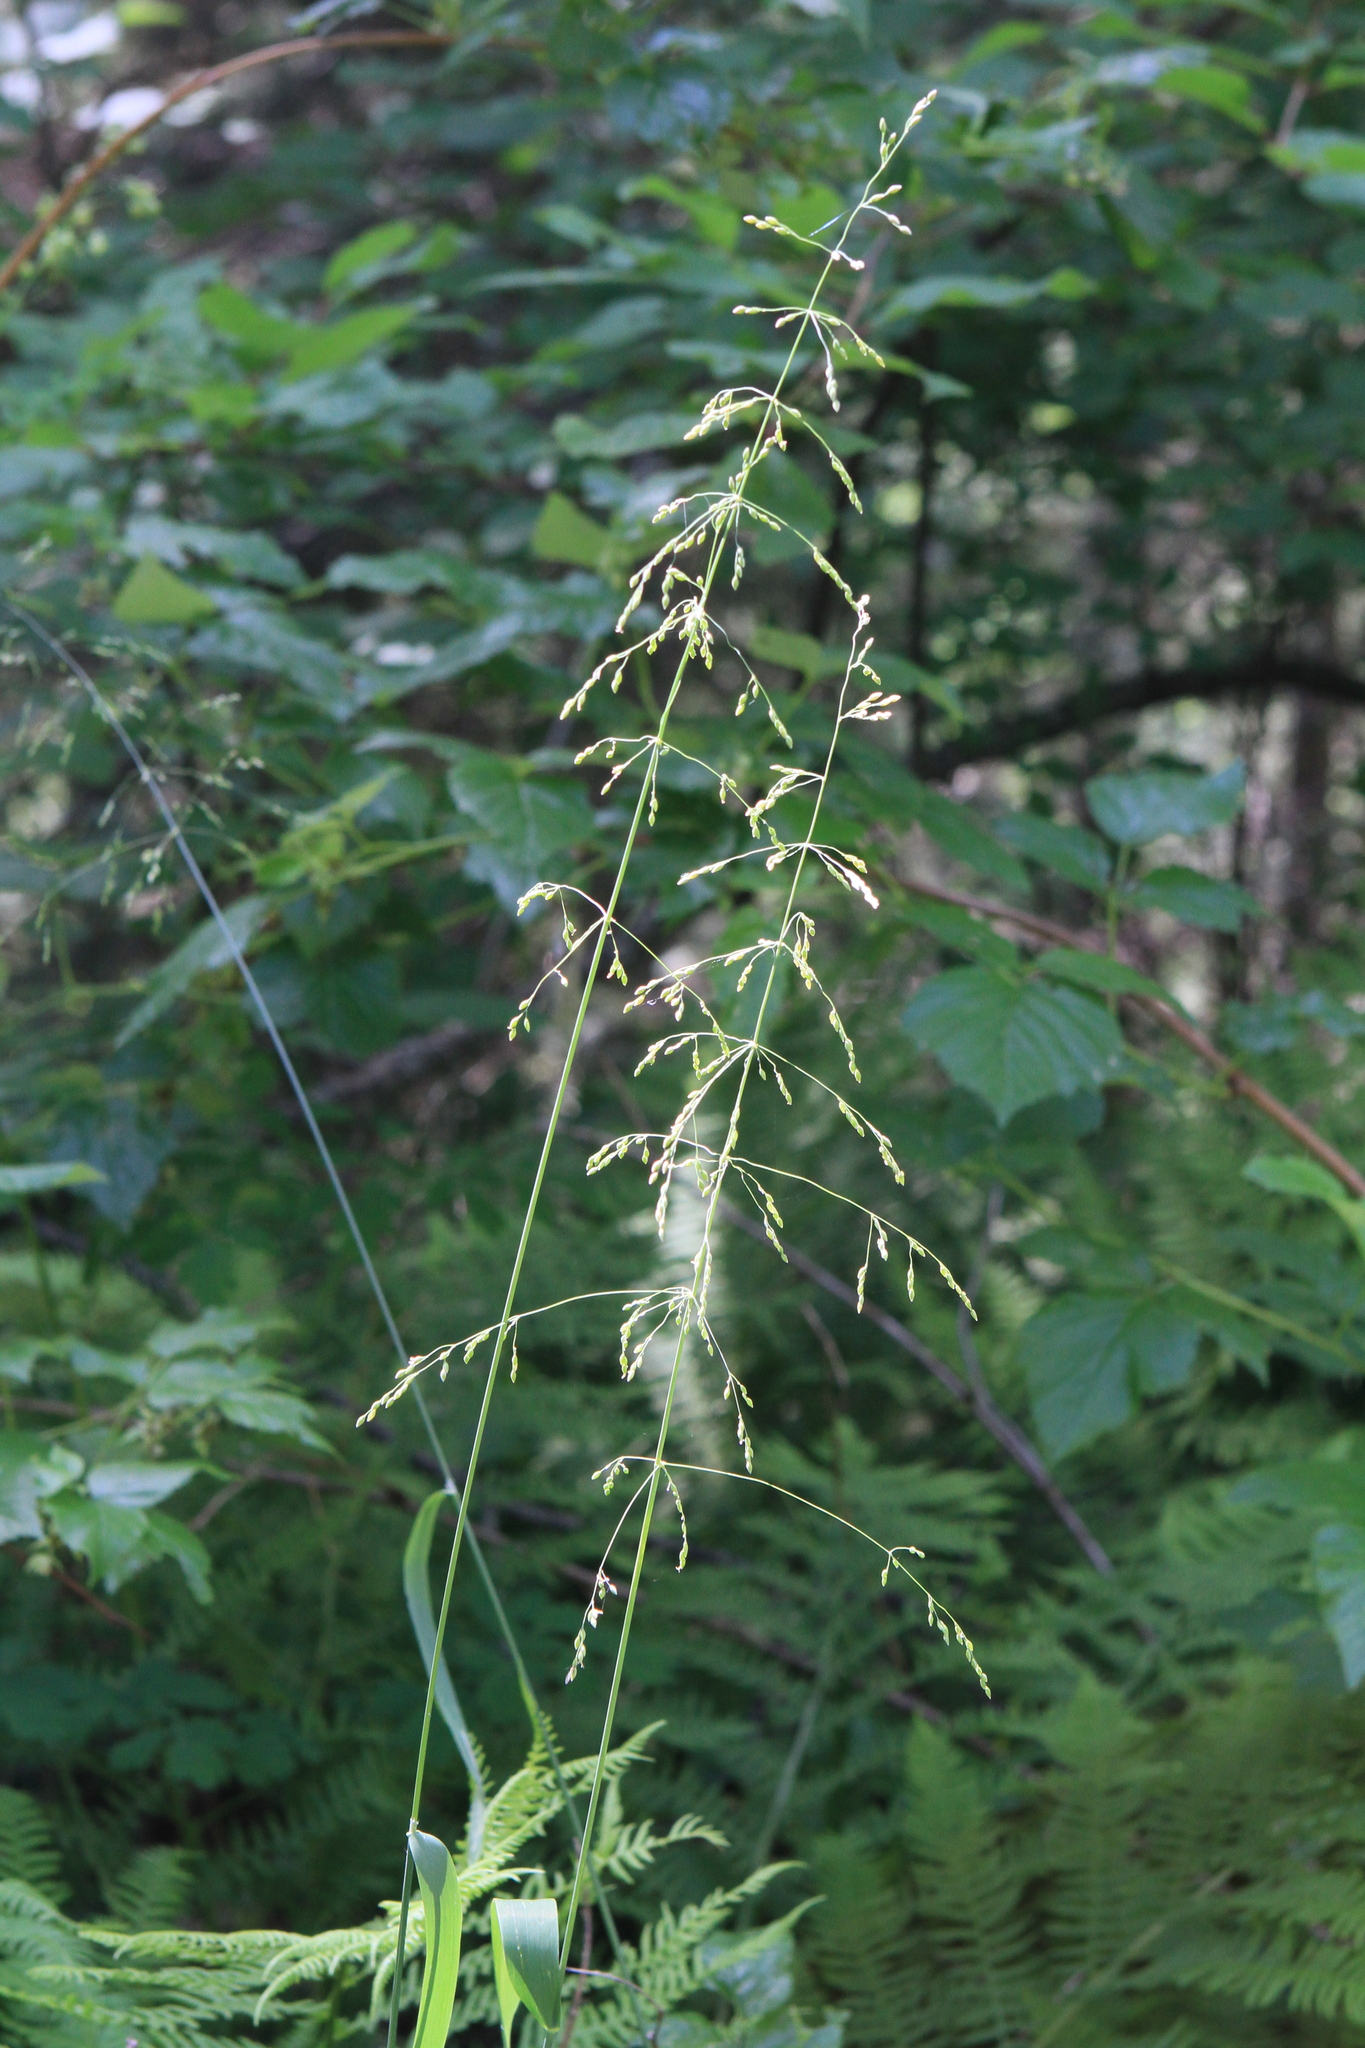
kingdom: Plantae
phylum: Tracheophyta
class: Liliopsida
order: Poales
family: Poaceae
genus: Milium
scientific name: Milium effusum
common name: Wood millet
